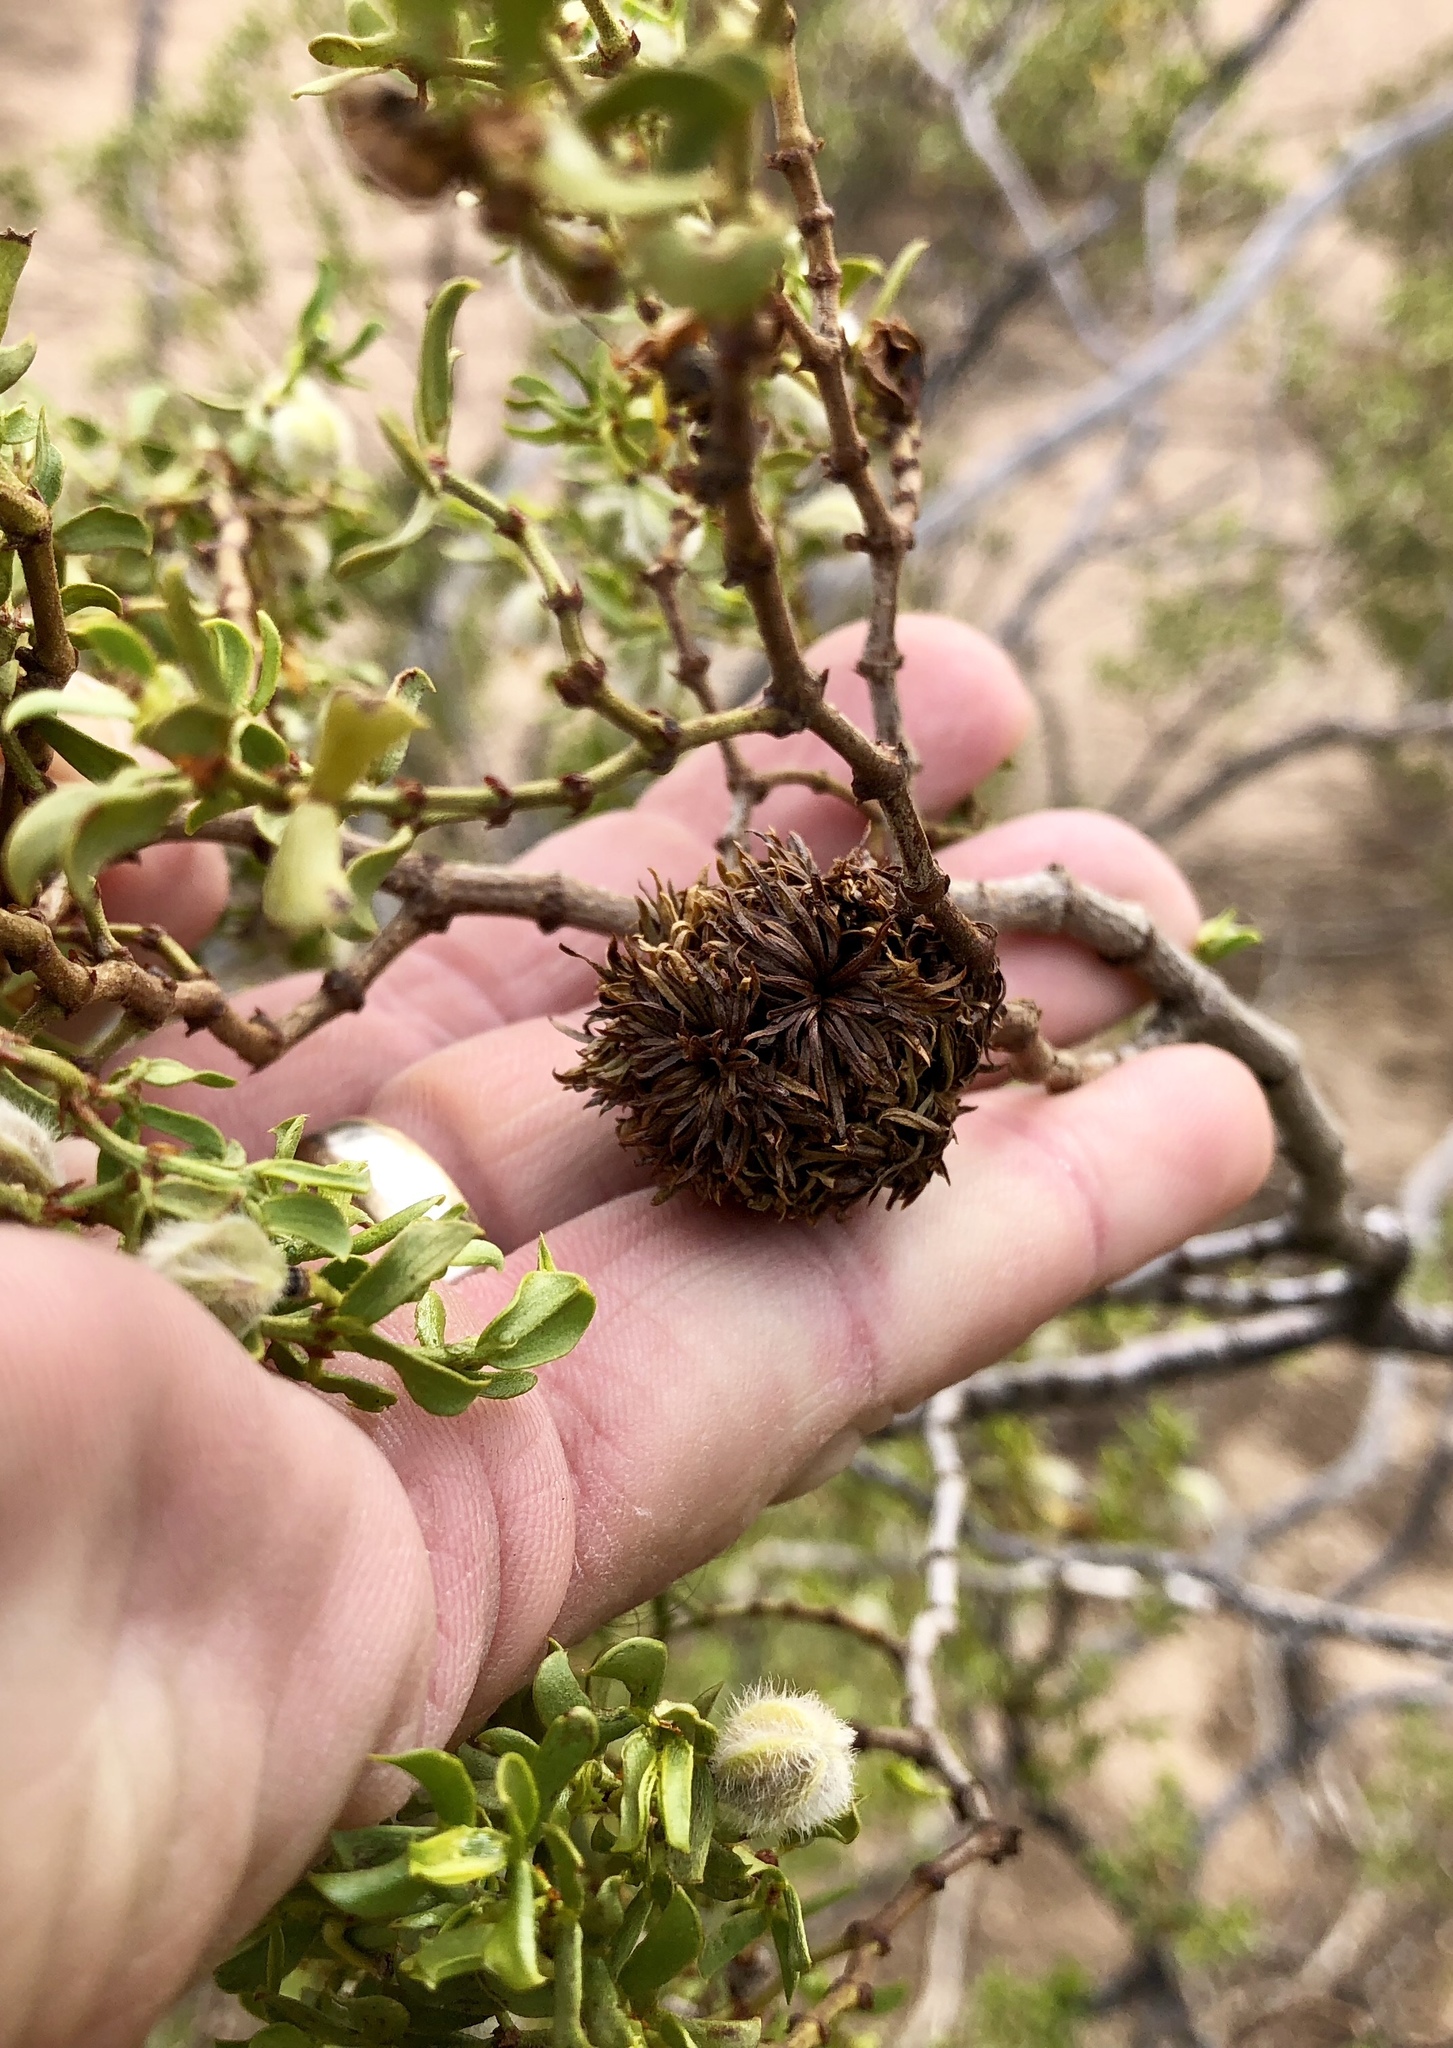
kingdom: Animalia
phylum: Arthropoda
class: Insecta
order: Diptera
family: Cecidomyiidae
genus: Asphondylia
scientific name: Asphondylia auripila
